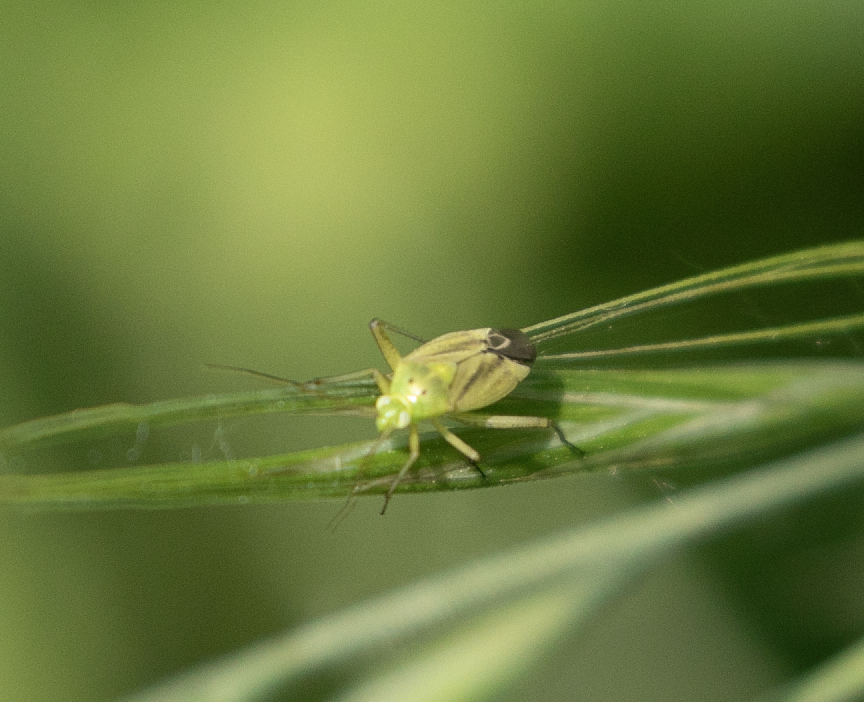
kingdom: Animalia
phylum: Arthropoda
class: Insecta
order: Hemiptera
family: Miridae
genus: Closterotomus
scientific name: Closterotomus norvegicus
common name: Plant bug
